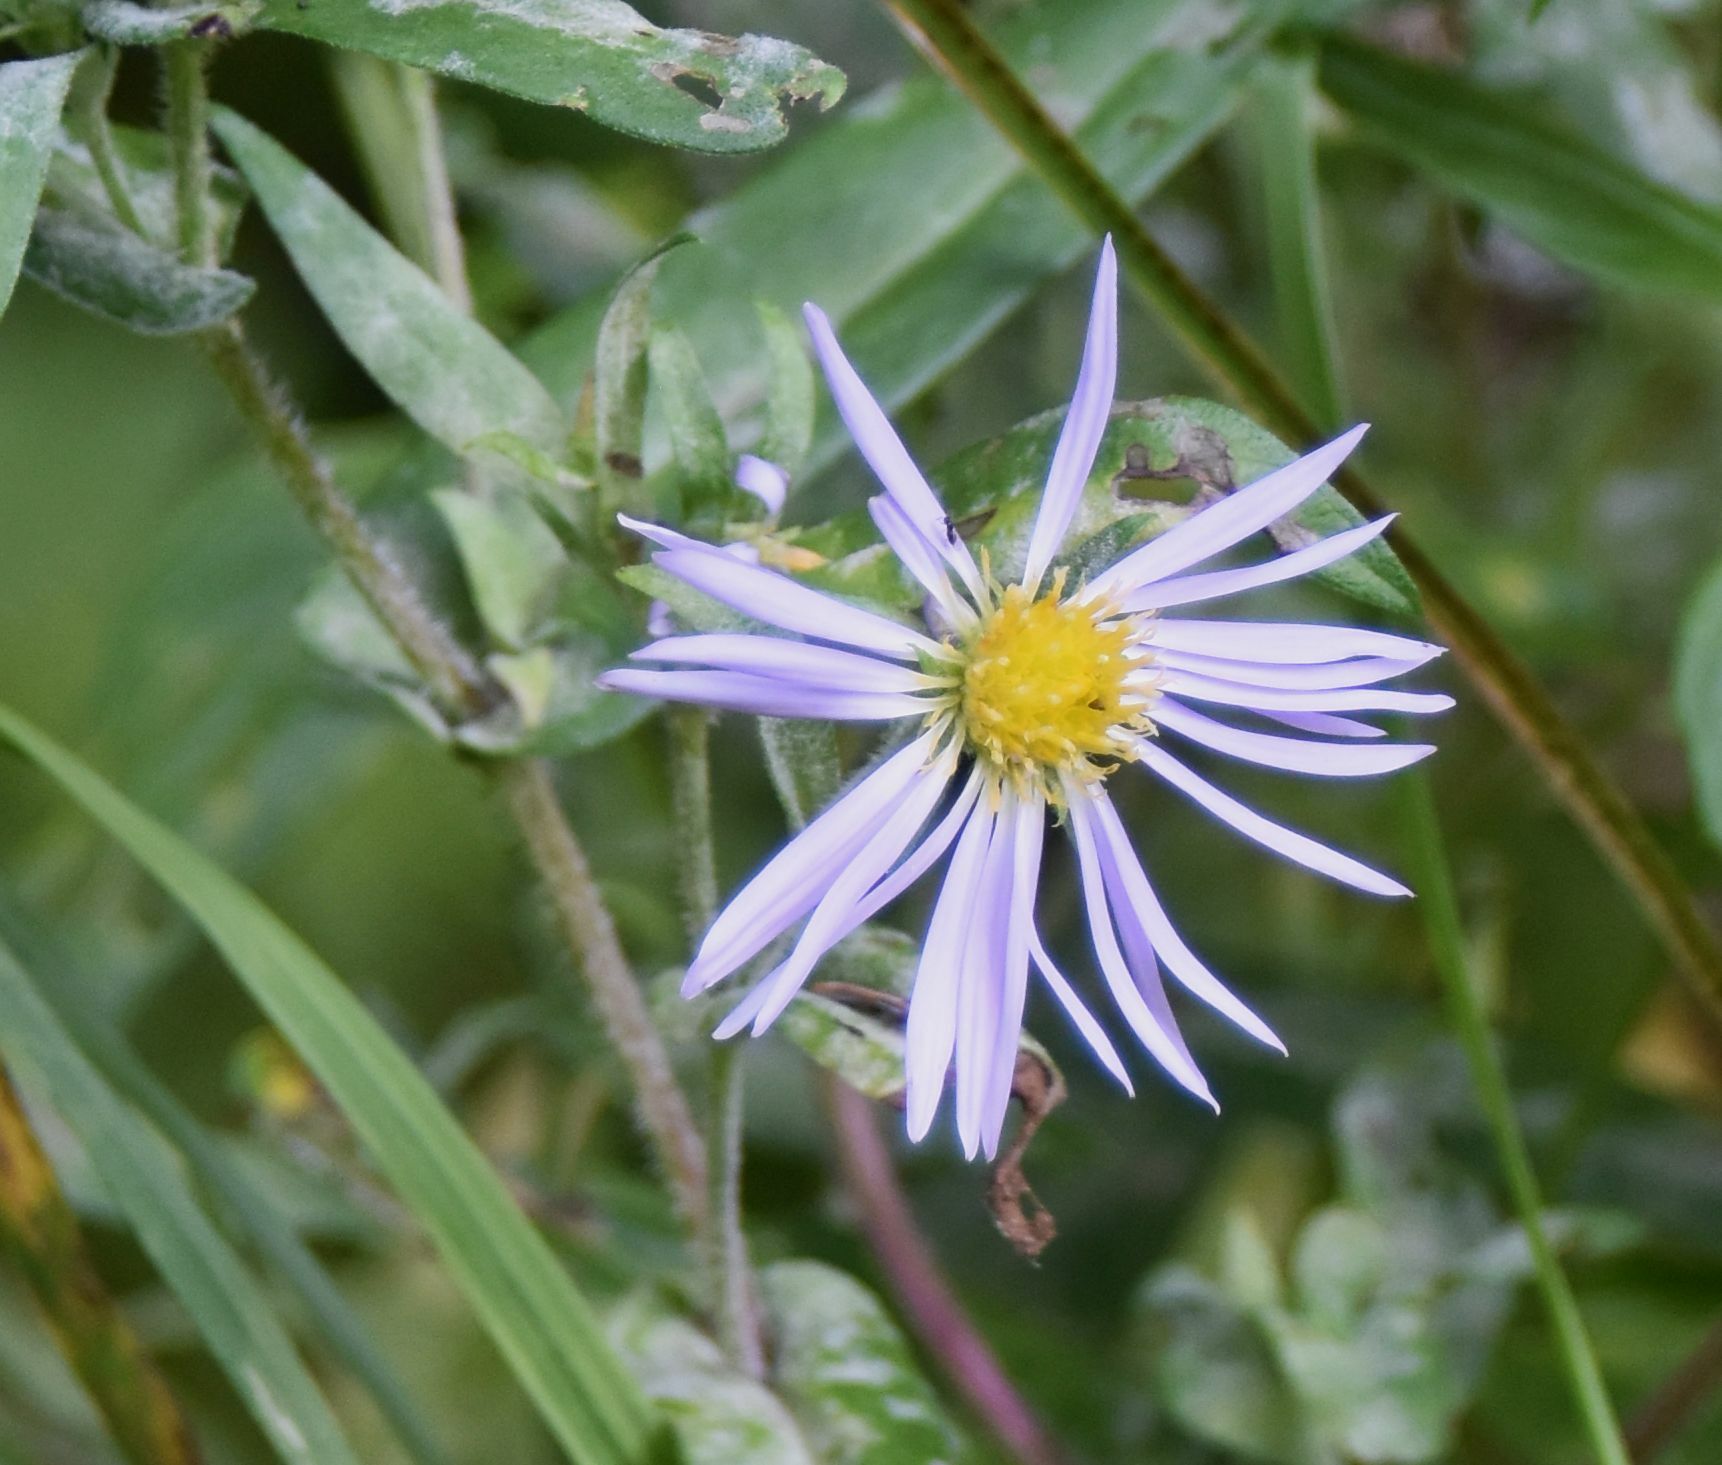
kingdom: Plantae
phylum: Tracheophyta
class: Magnoliopsida
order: Asterales
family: Asteraceae
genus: Symphyotrichum
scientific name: Symphyotrichum puniceum
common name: Bog aster
